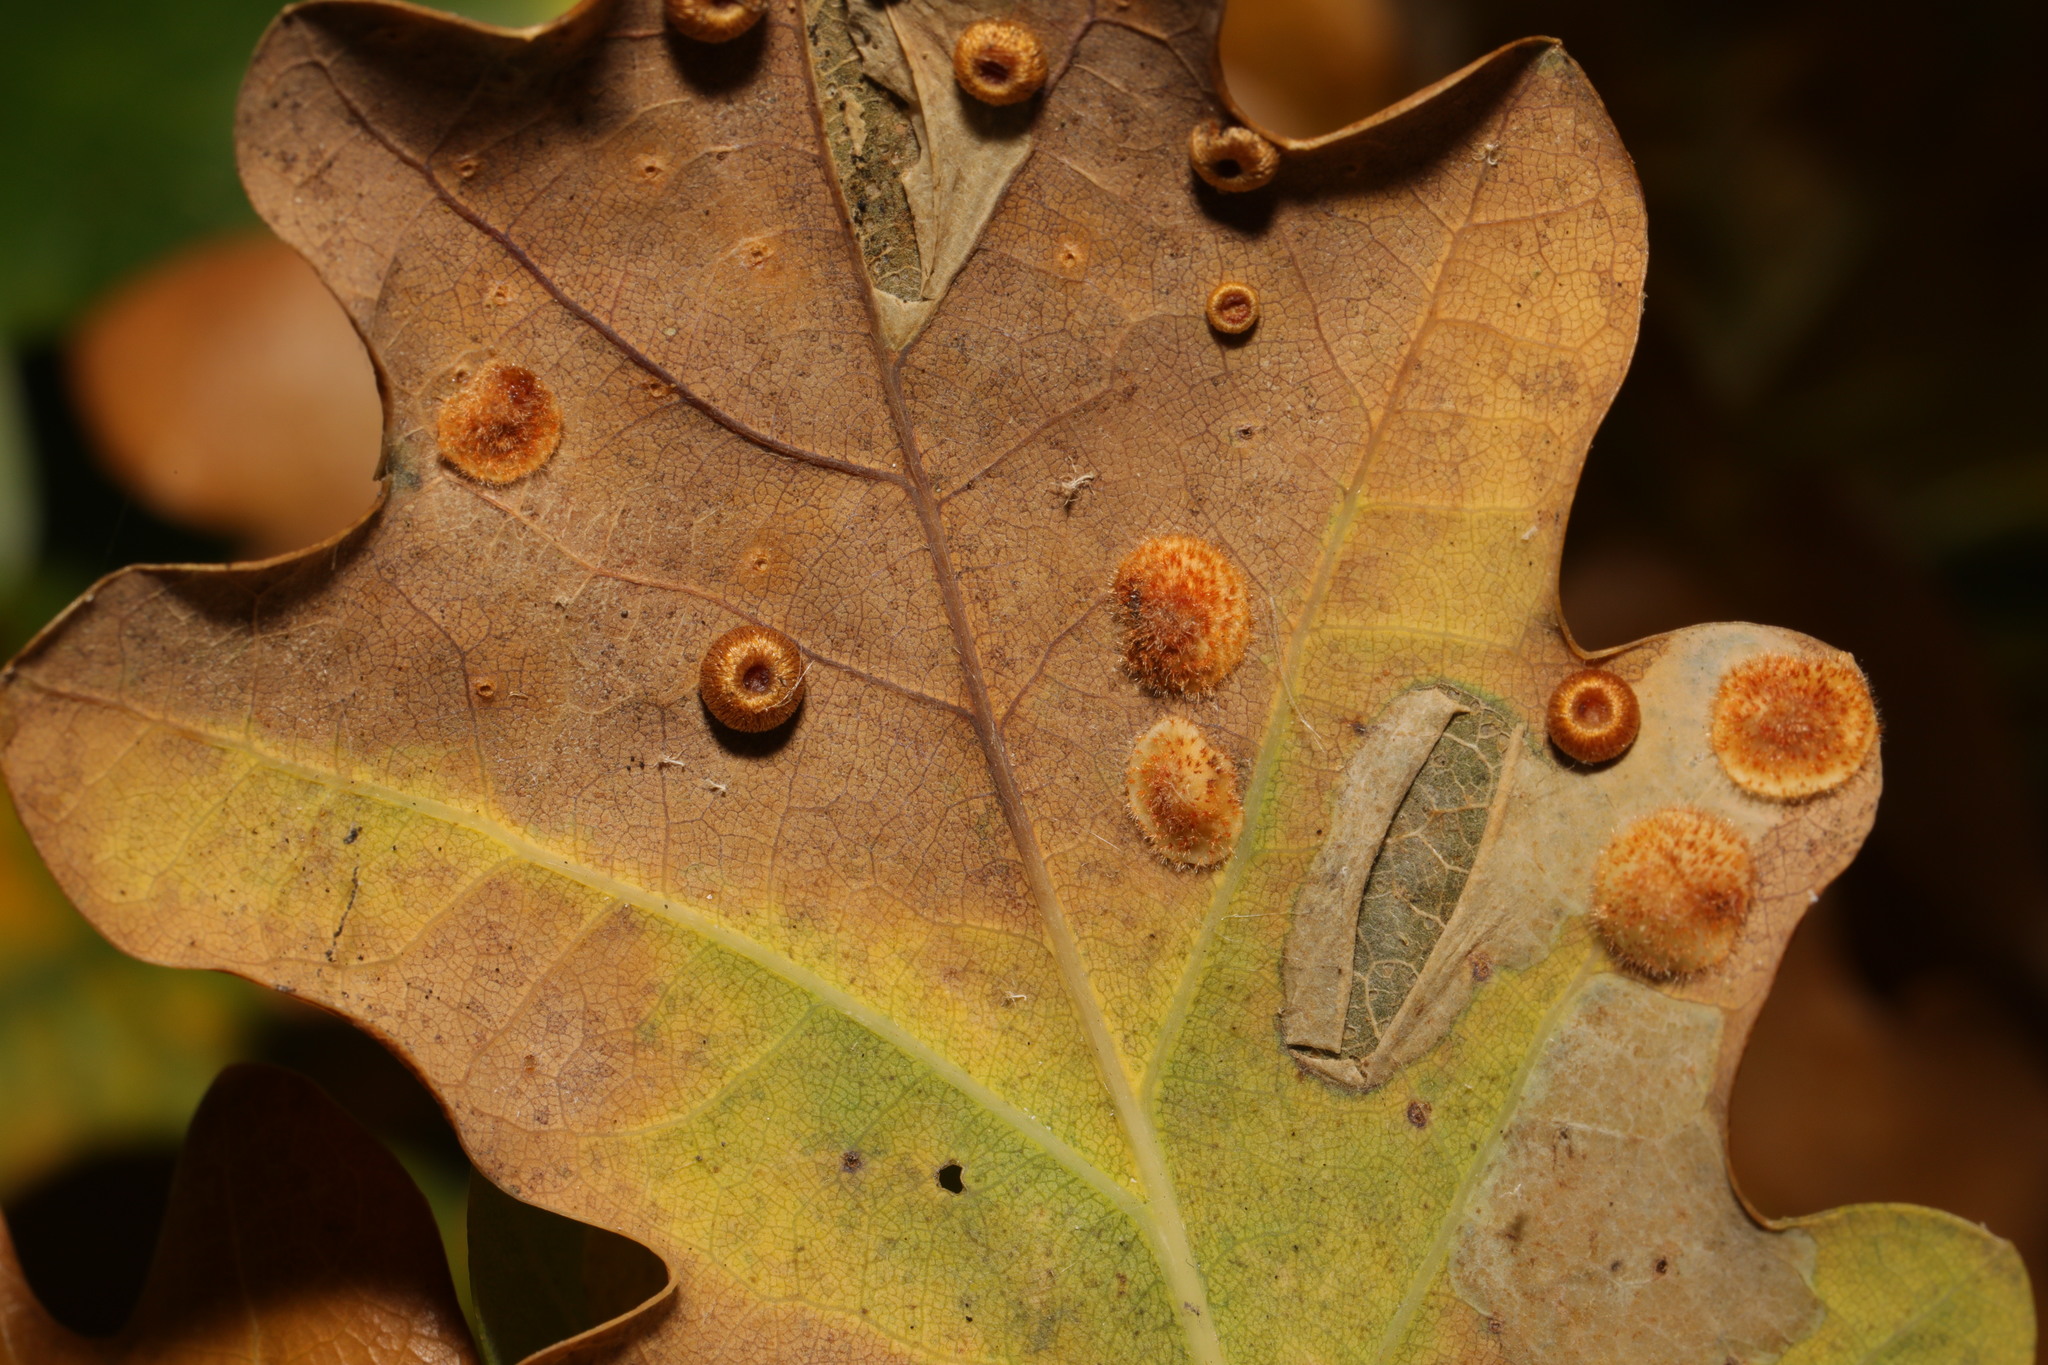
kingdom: Animalia
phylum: Arthropoda
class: Insecta
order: Hymenoptera
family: Cynipidae
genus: Neuroterus
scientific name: Neuroterus numismalis
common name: Silk-button spangle gall
